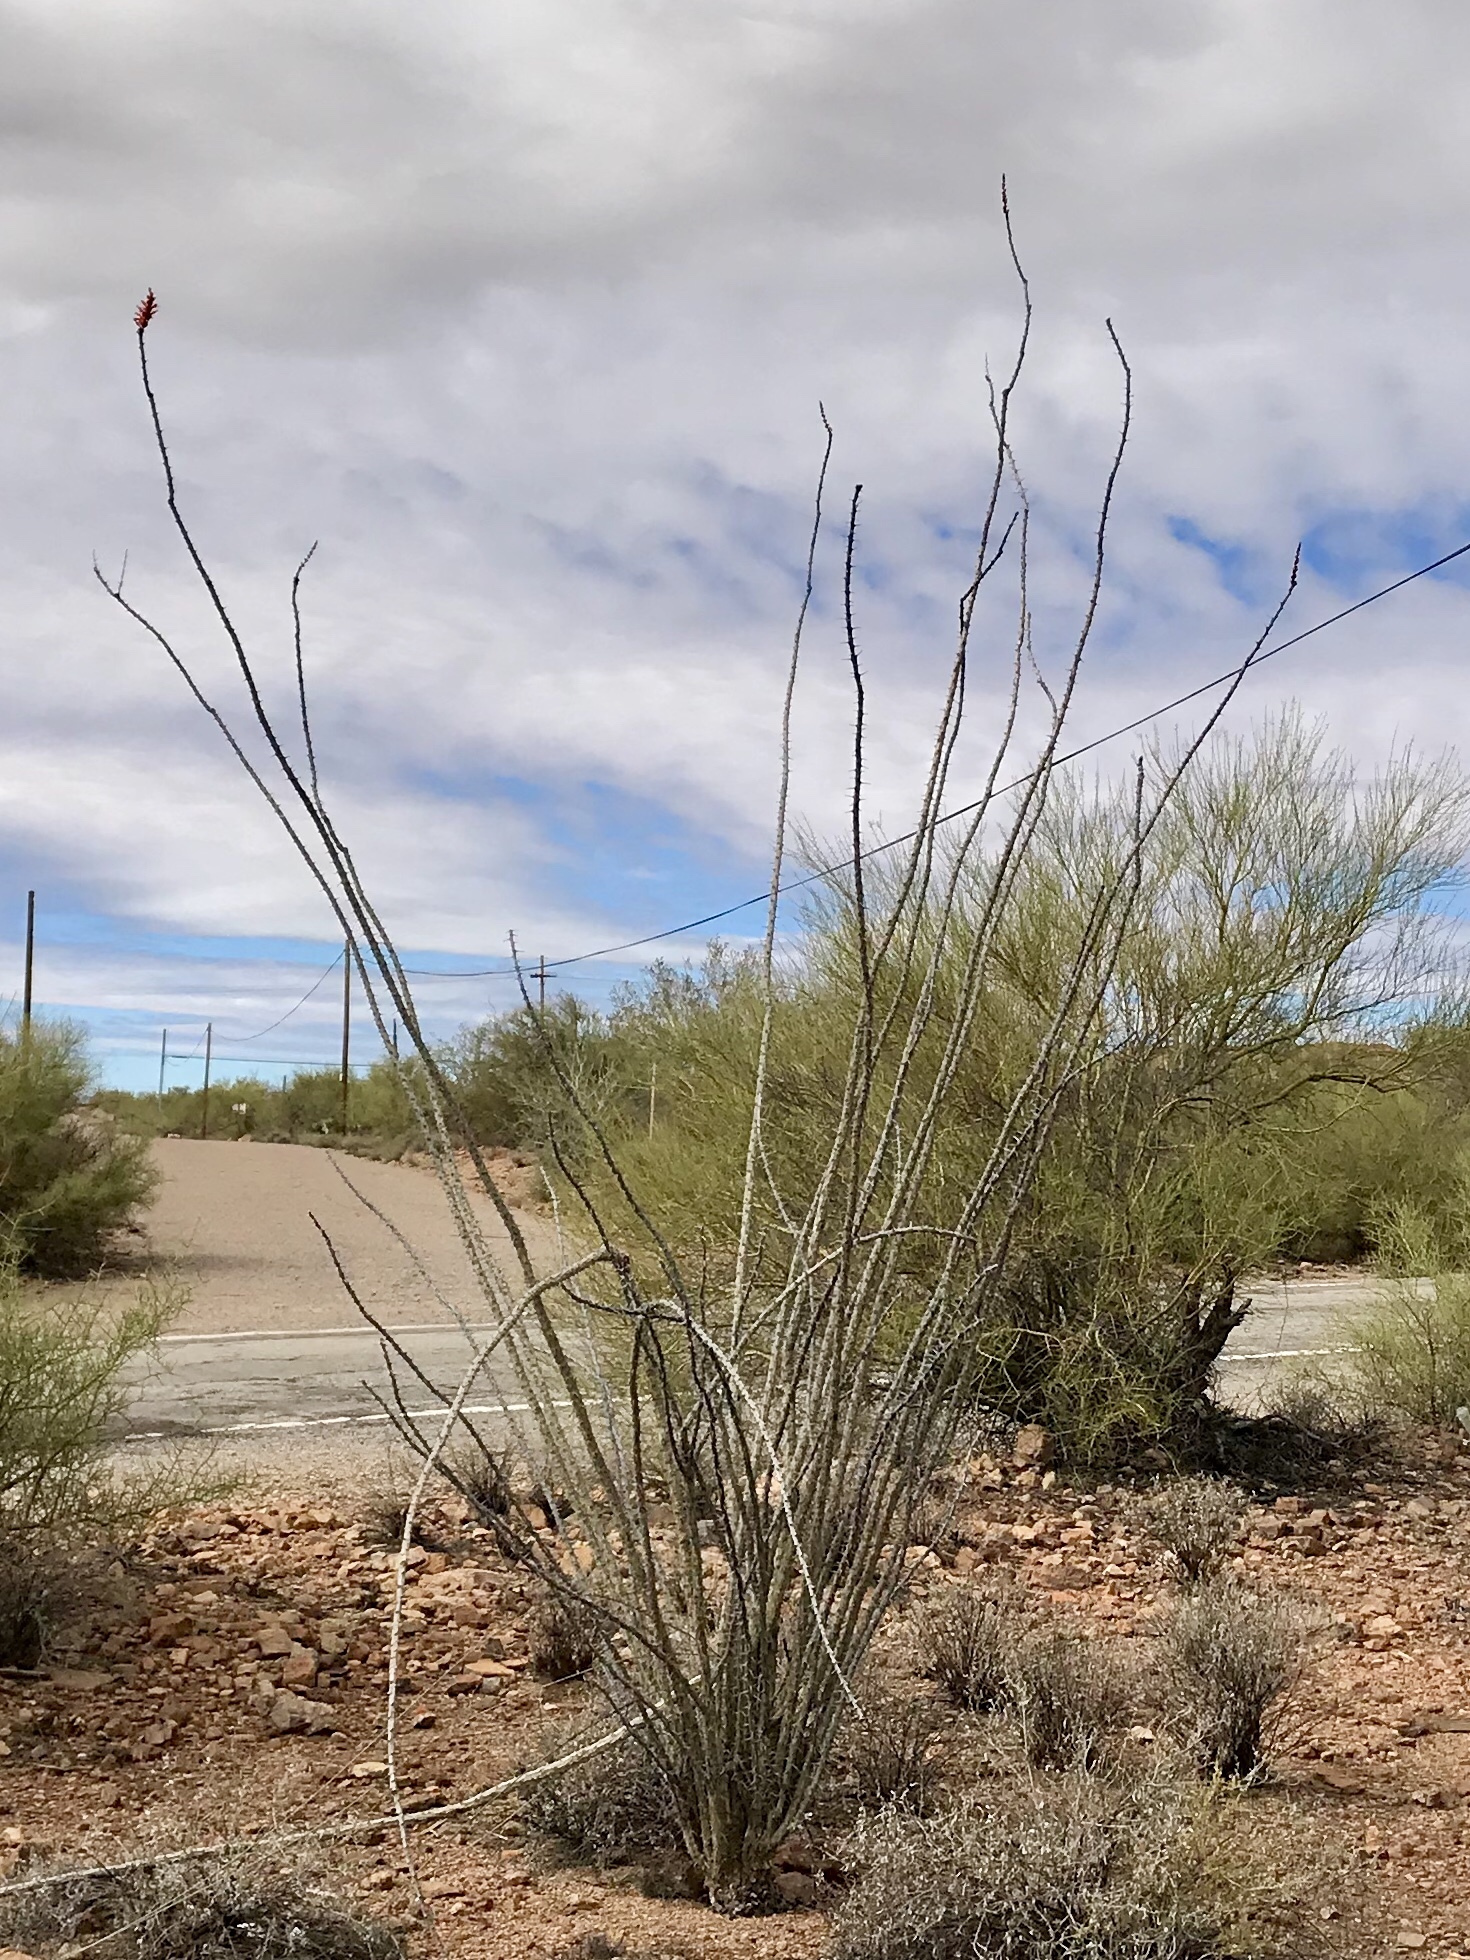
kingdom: Plantae
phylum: Tracheophyta
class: Magnoliopsida
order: Ericales
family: Fouquieriaceae
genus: Fouquieria
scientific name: Fouquieria splendens
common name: Vine-cactus
